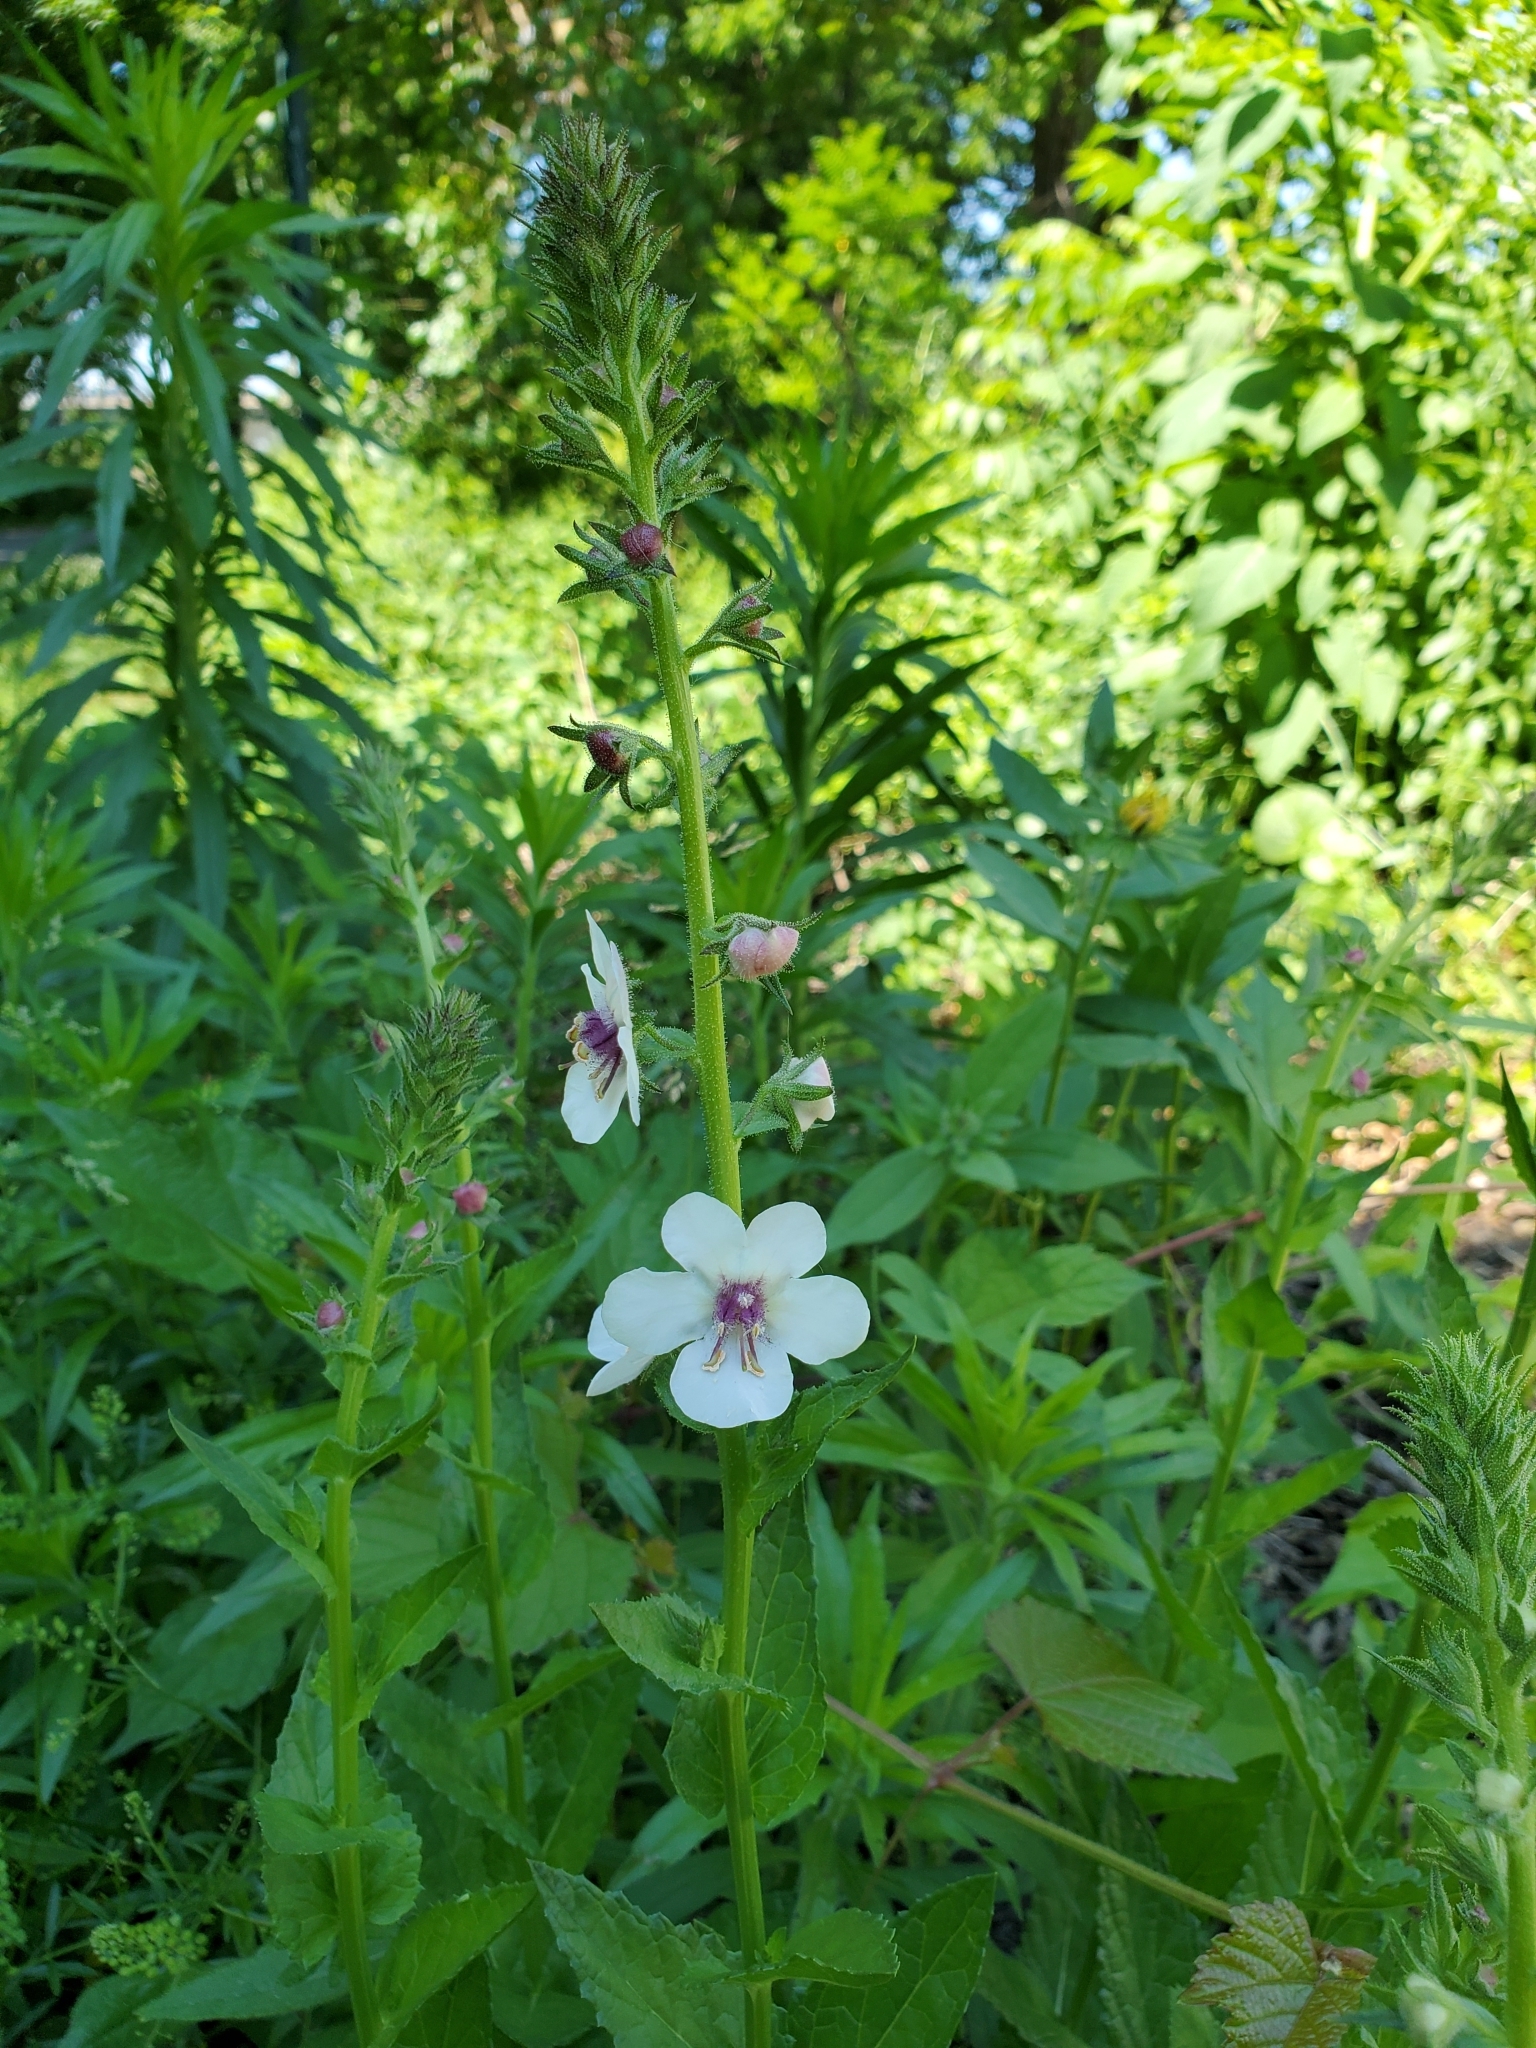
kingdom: Plantae
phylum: Tracheophyta
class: Magnoliopsida
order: Lamiales
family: Scrophulariaceae
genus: Verbascum
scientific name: Verbascum blattaria
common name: Moth mullein
